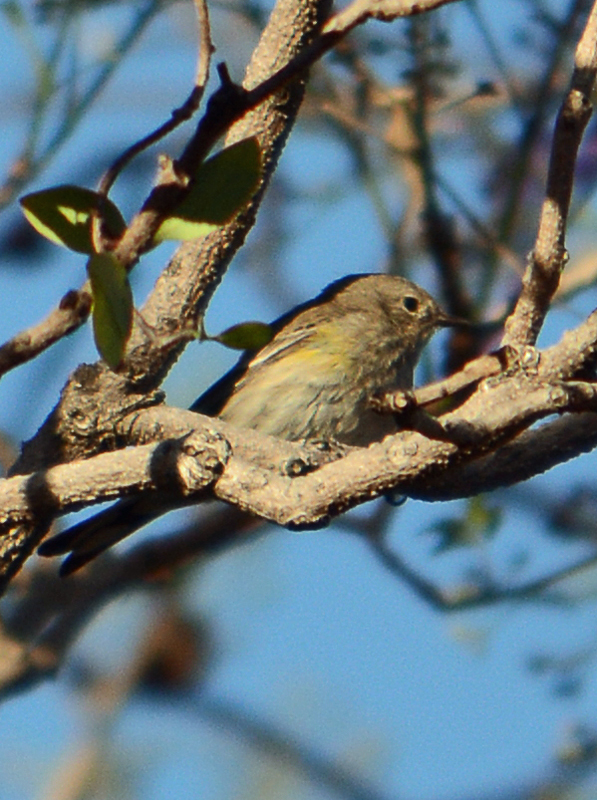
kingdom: Animalia
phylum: Chordata
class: Aves
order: Passeriformes
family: Parulidae
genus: Setophaga
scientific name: Setophaga coronata
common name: Myrtle warbler
